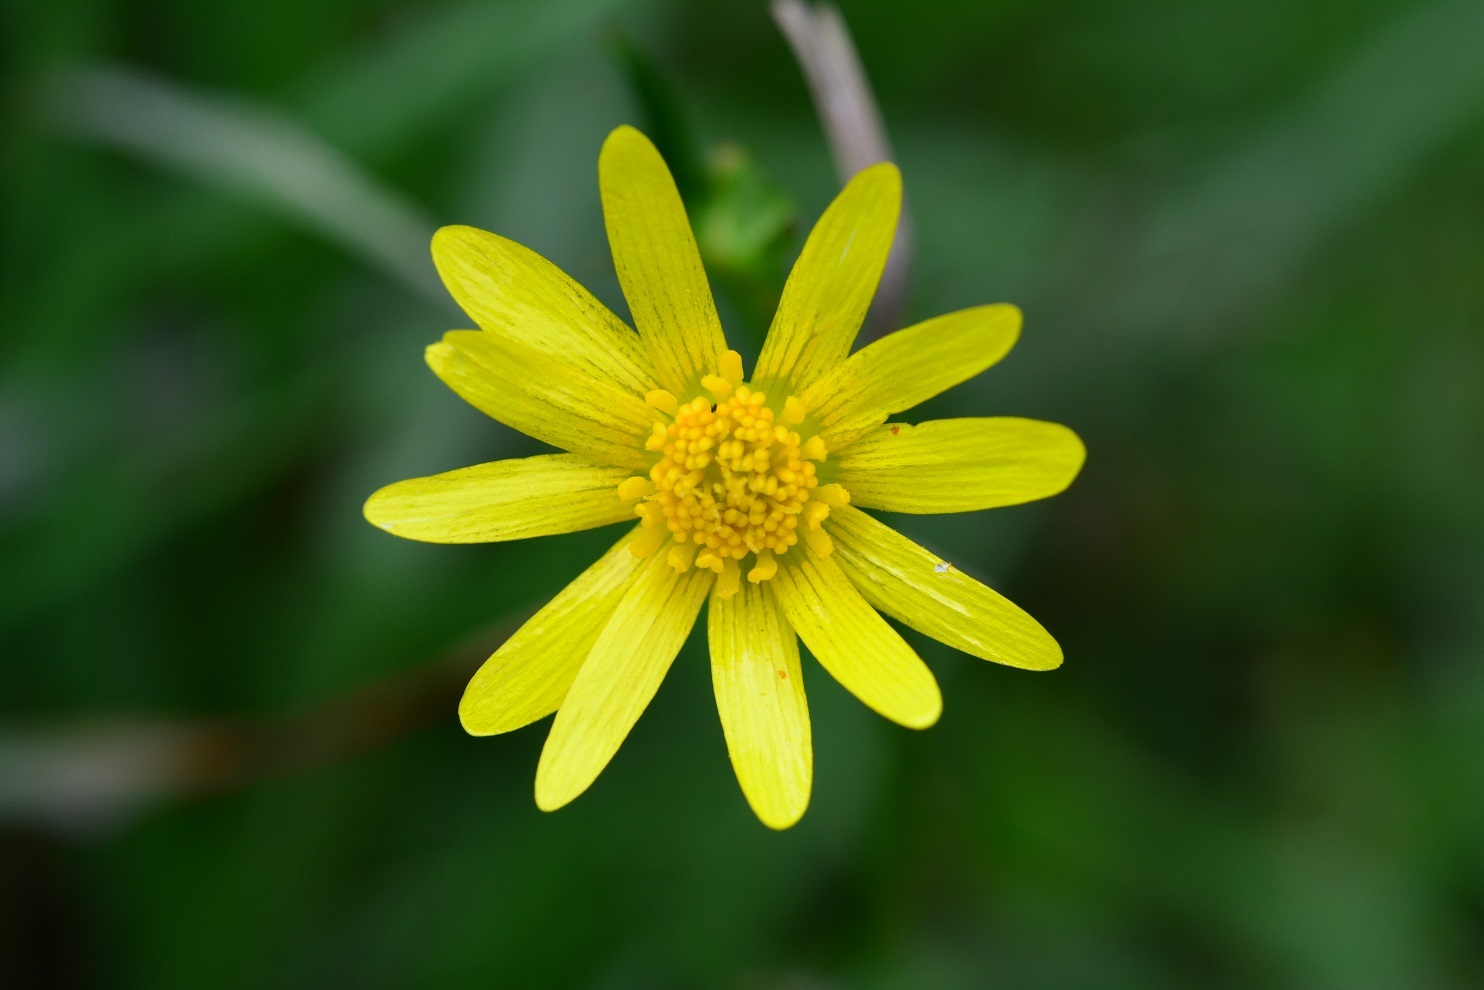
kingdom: Plantae
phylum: Tracheophyta
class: Magnoliopsida
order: Ranunculales
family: Ranunculaceae
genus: Ranunculus
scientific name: Ranunculus petiolaris
